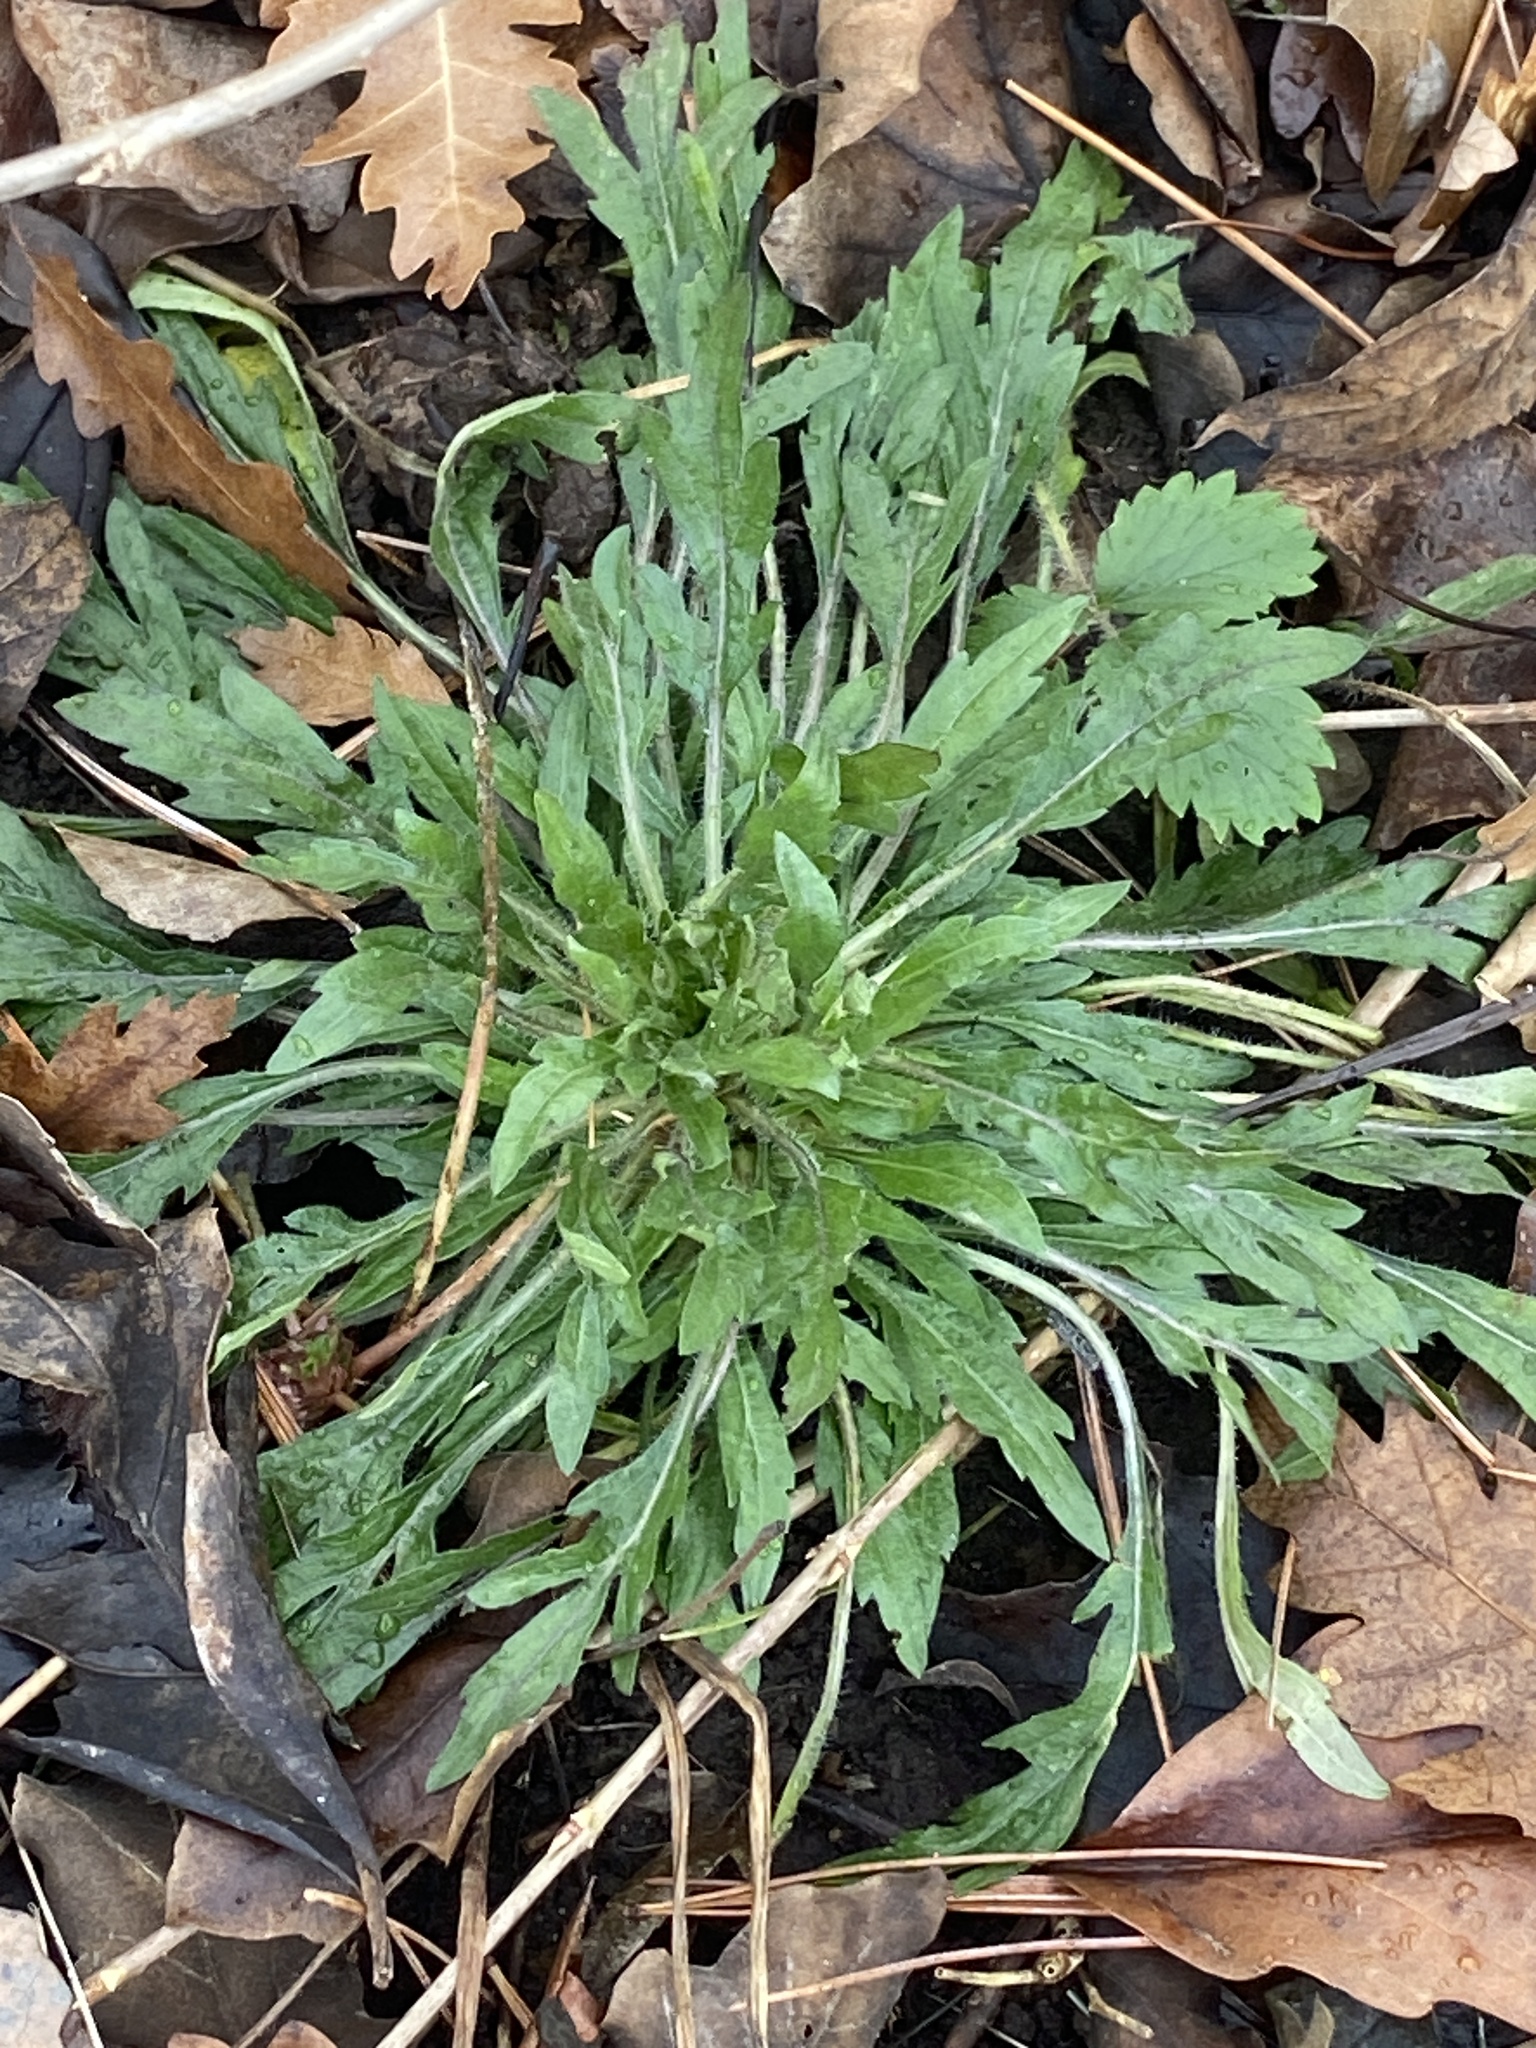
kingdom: Plantae
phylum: Tracheophyta
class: Magnoliopsida
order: Asterales
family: Asteraceae
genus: Erigeron
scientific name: Erigeron canadensis
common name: Canadian fleabane
